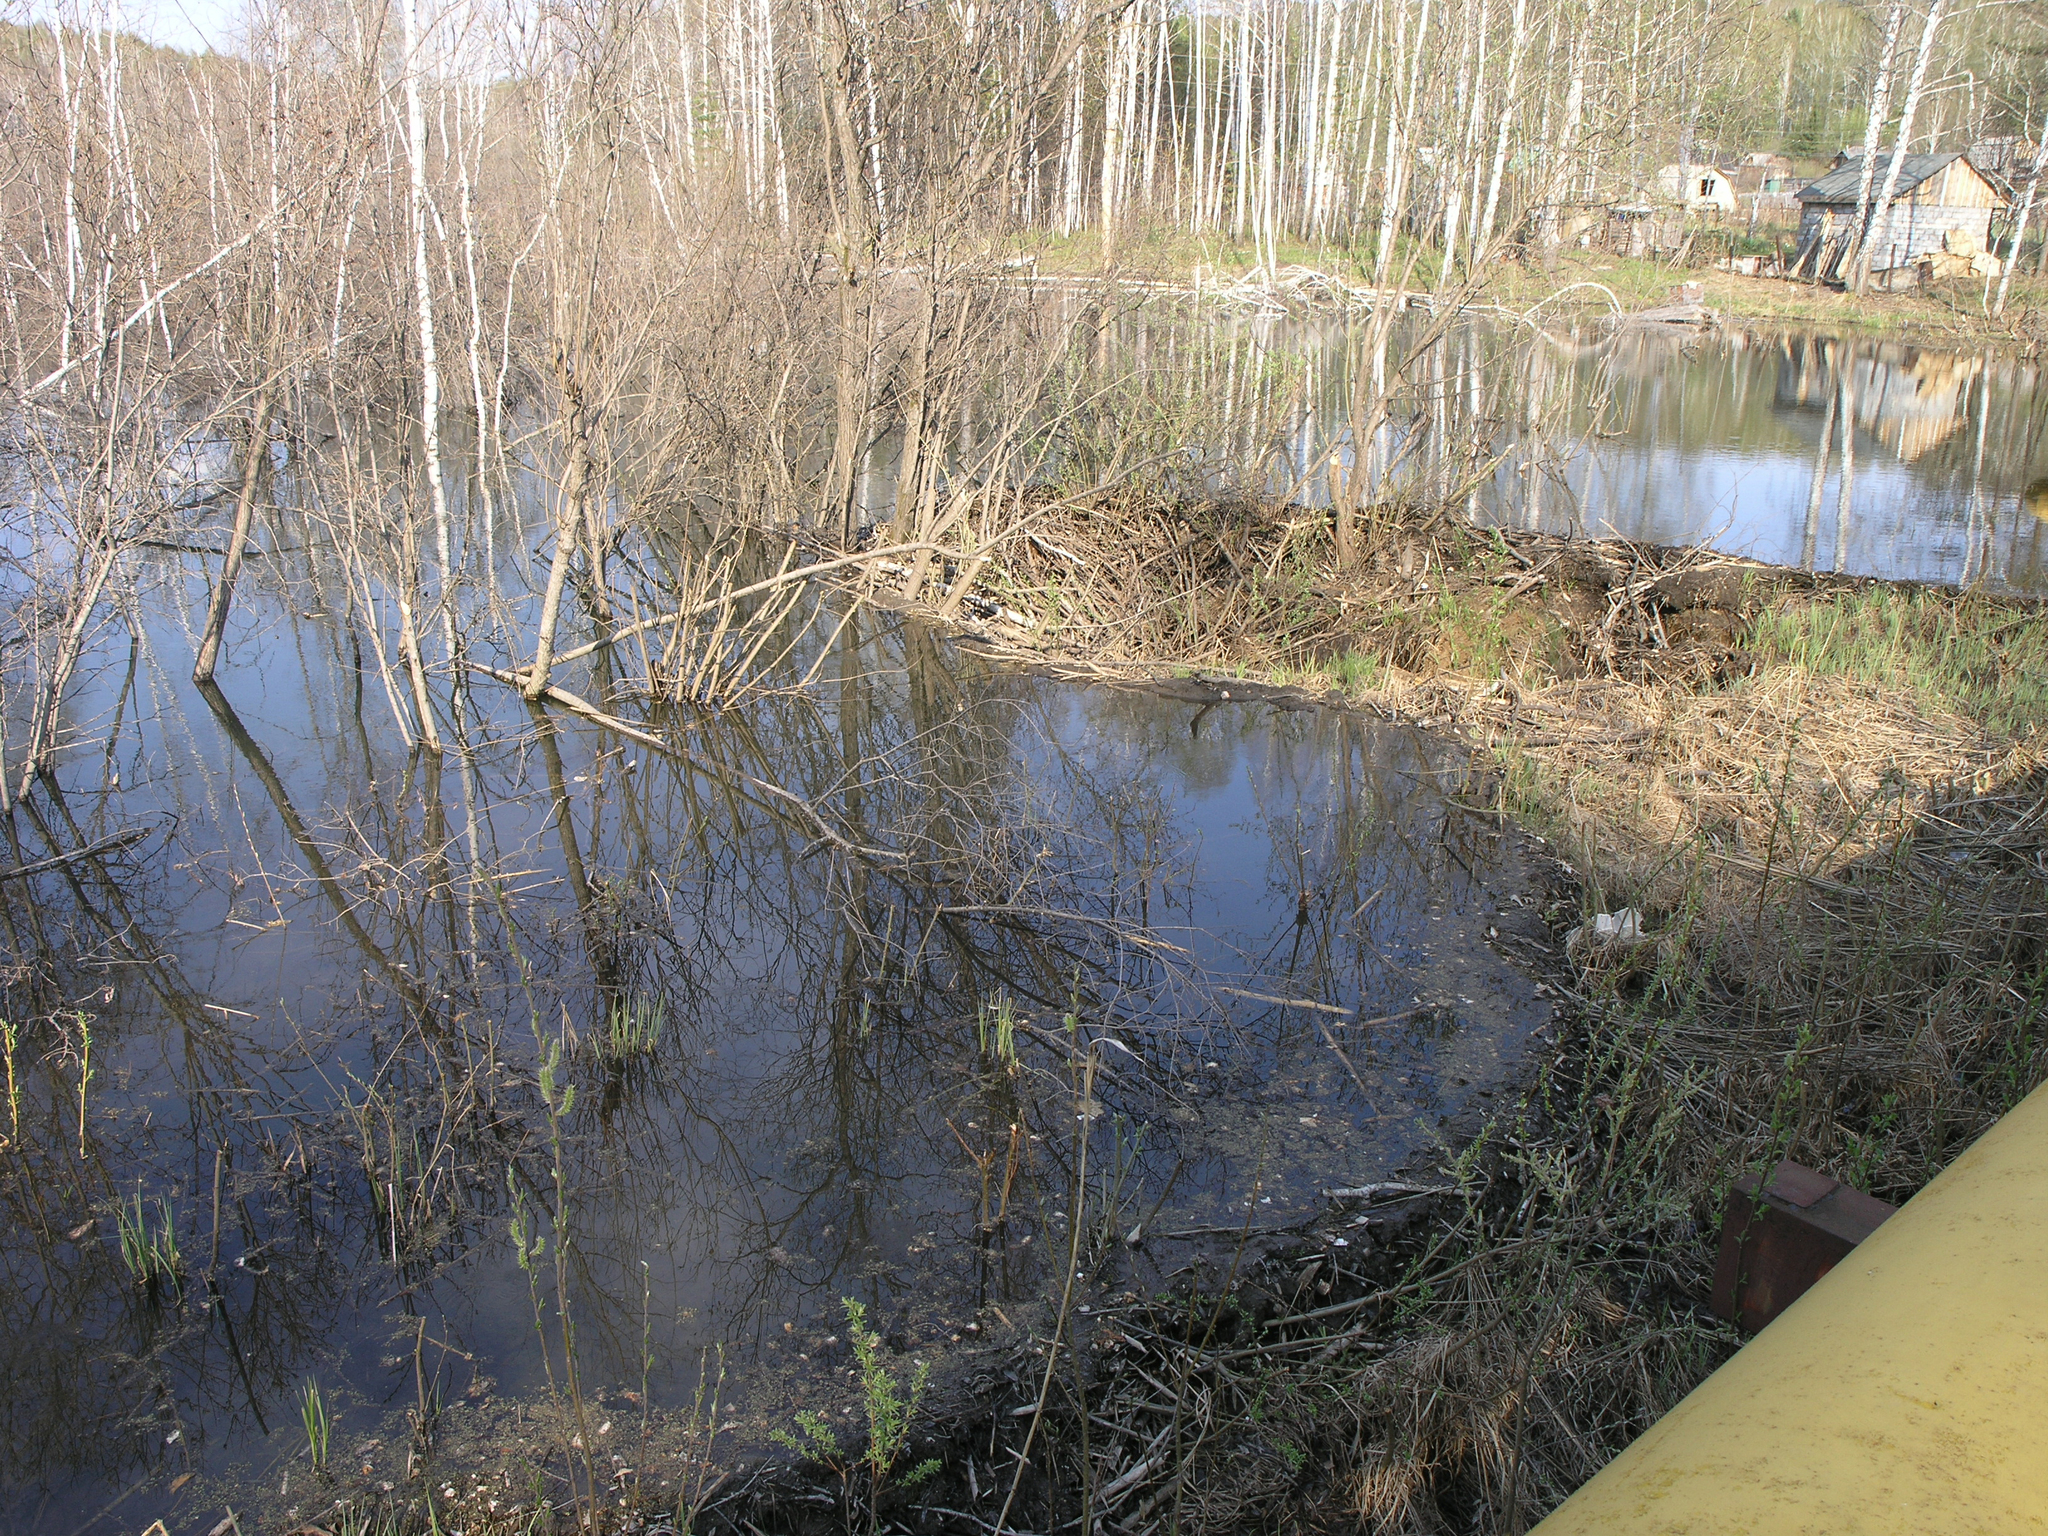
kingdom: Animalia
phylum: Chordata
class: Mammalia
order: Rodentia
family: Castoridae
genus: Castor
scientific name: Castor fiber
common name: Eurasian beaver
